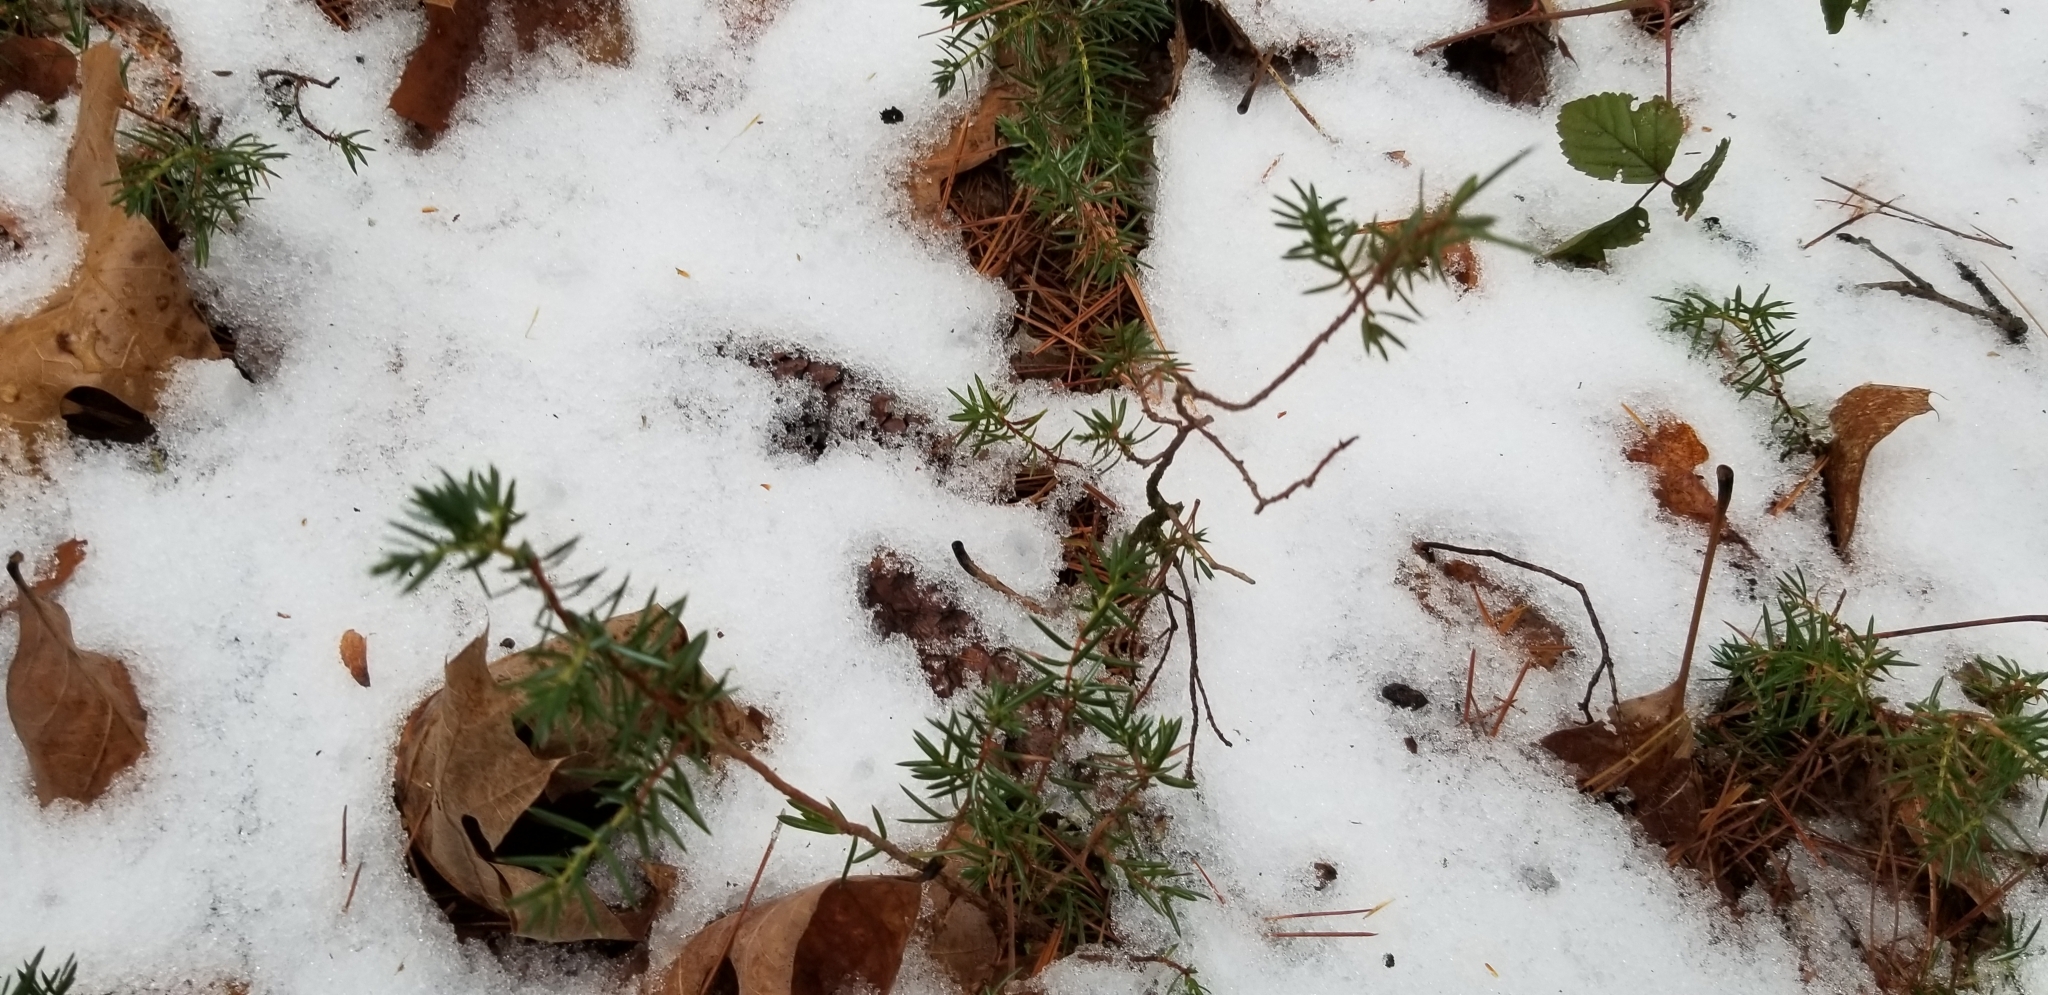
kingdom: Plantae
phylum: Tracheophyta
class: Pinopsida
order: Pinales
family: Cupressaceae
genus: Juniperus
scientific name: Juniperus communis
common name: Common juniper
